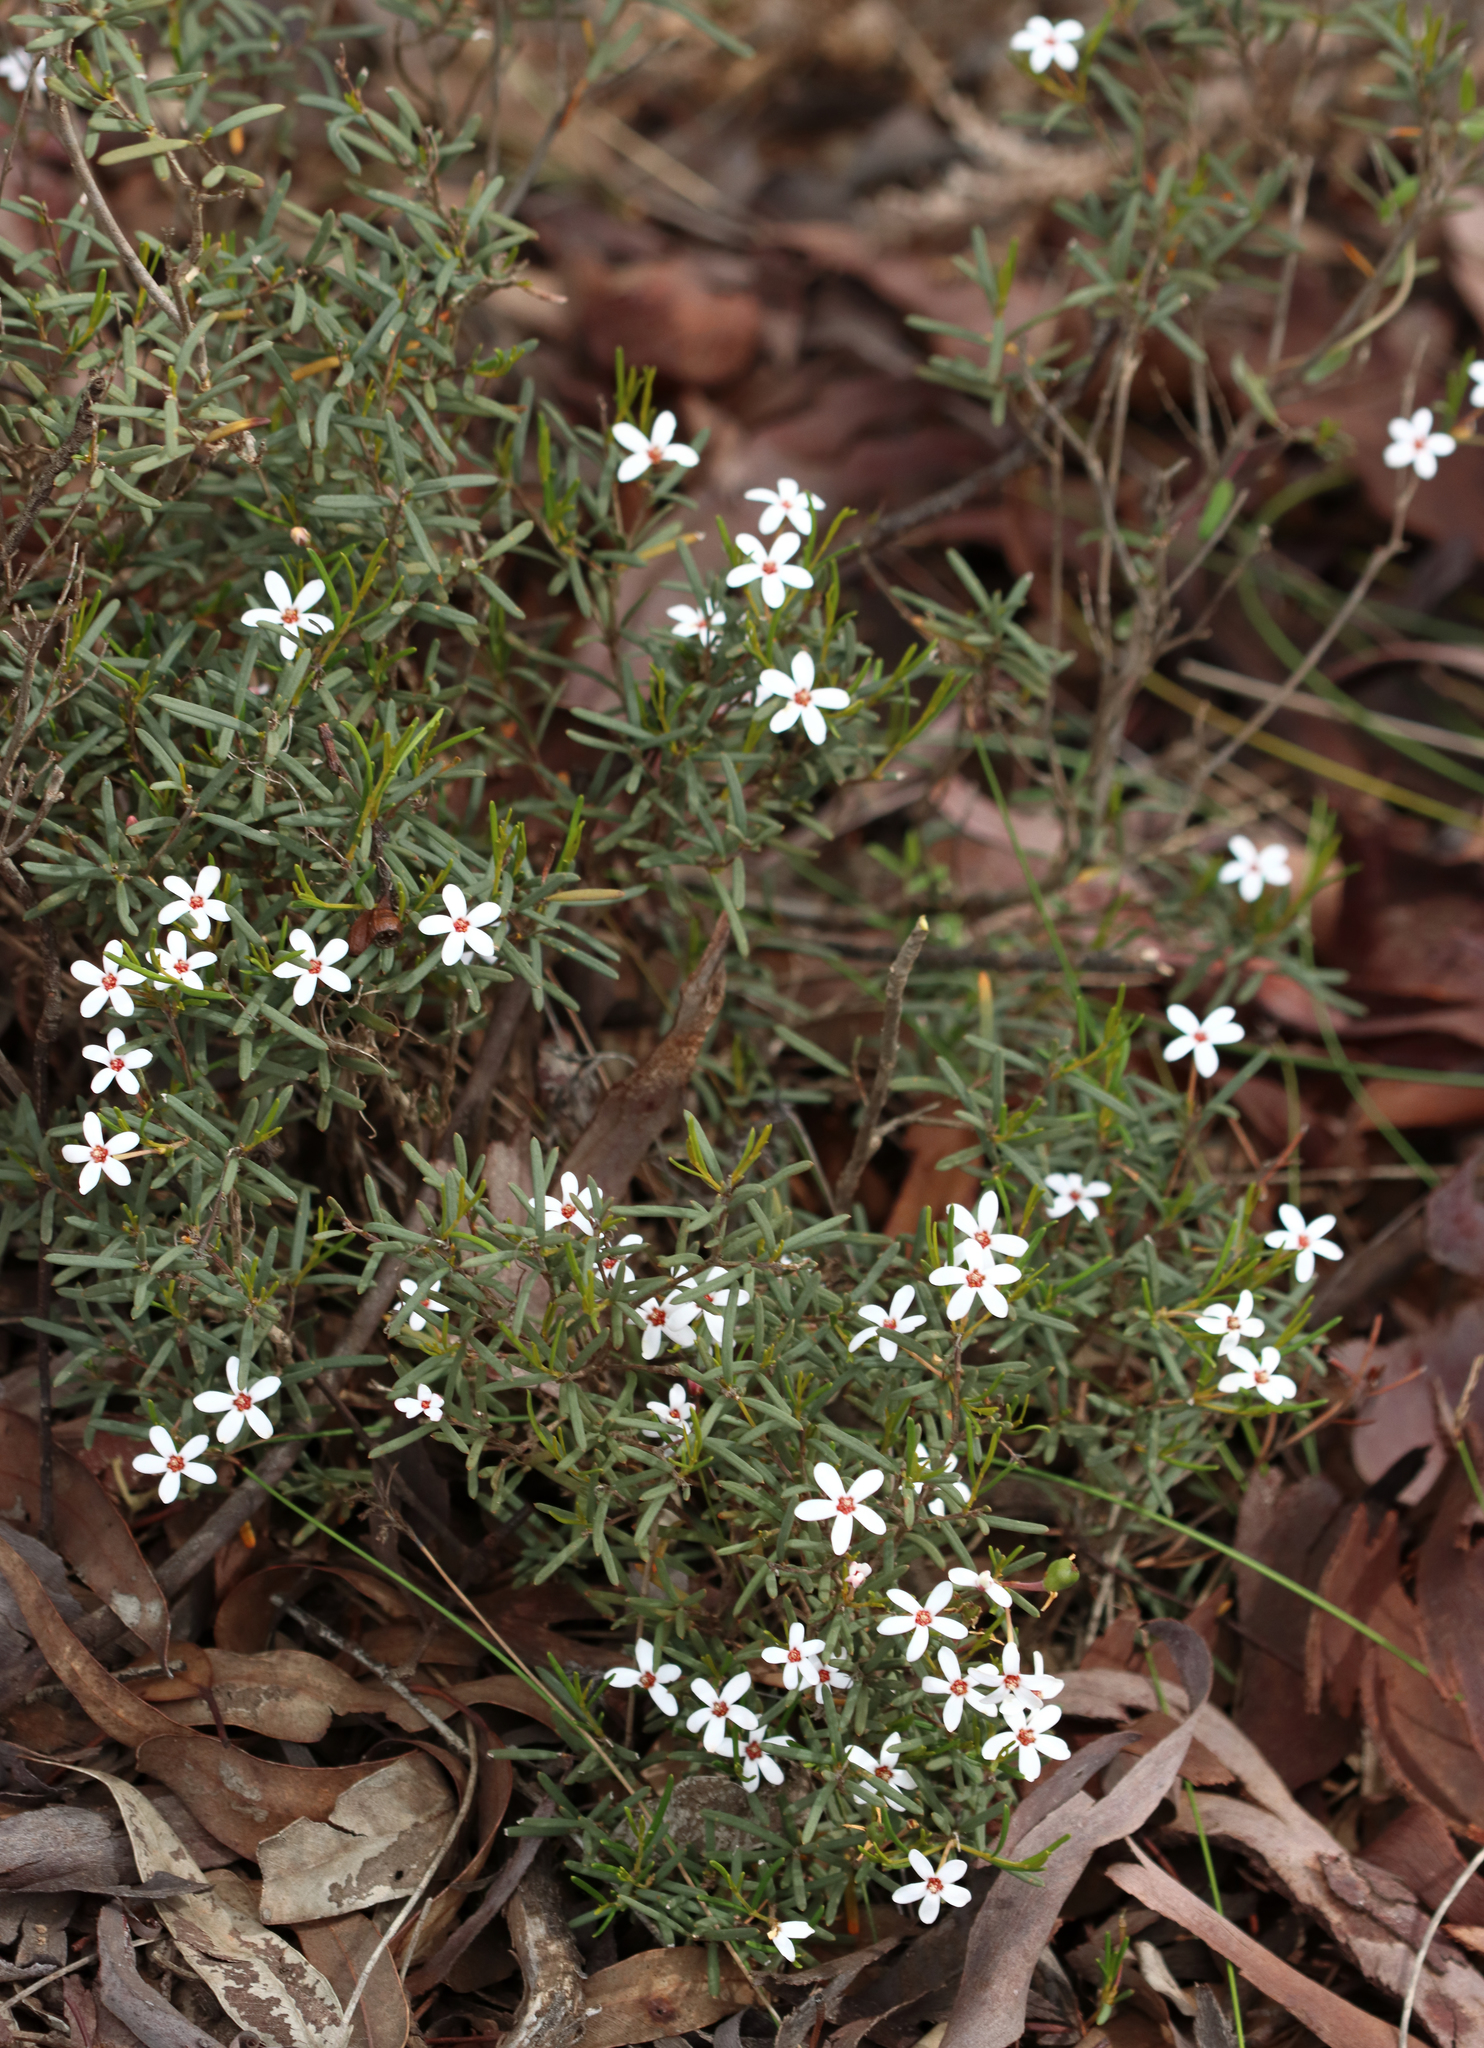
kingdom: Plantae
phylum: Tracheophyta
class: Magnoliopsida
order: Malpighiales
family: Euphorbiaceae
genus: Ricinocarpos
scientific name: Ricinocarpos undulatus
